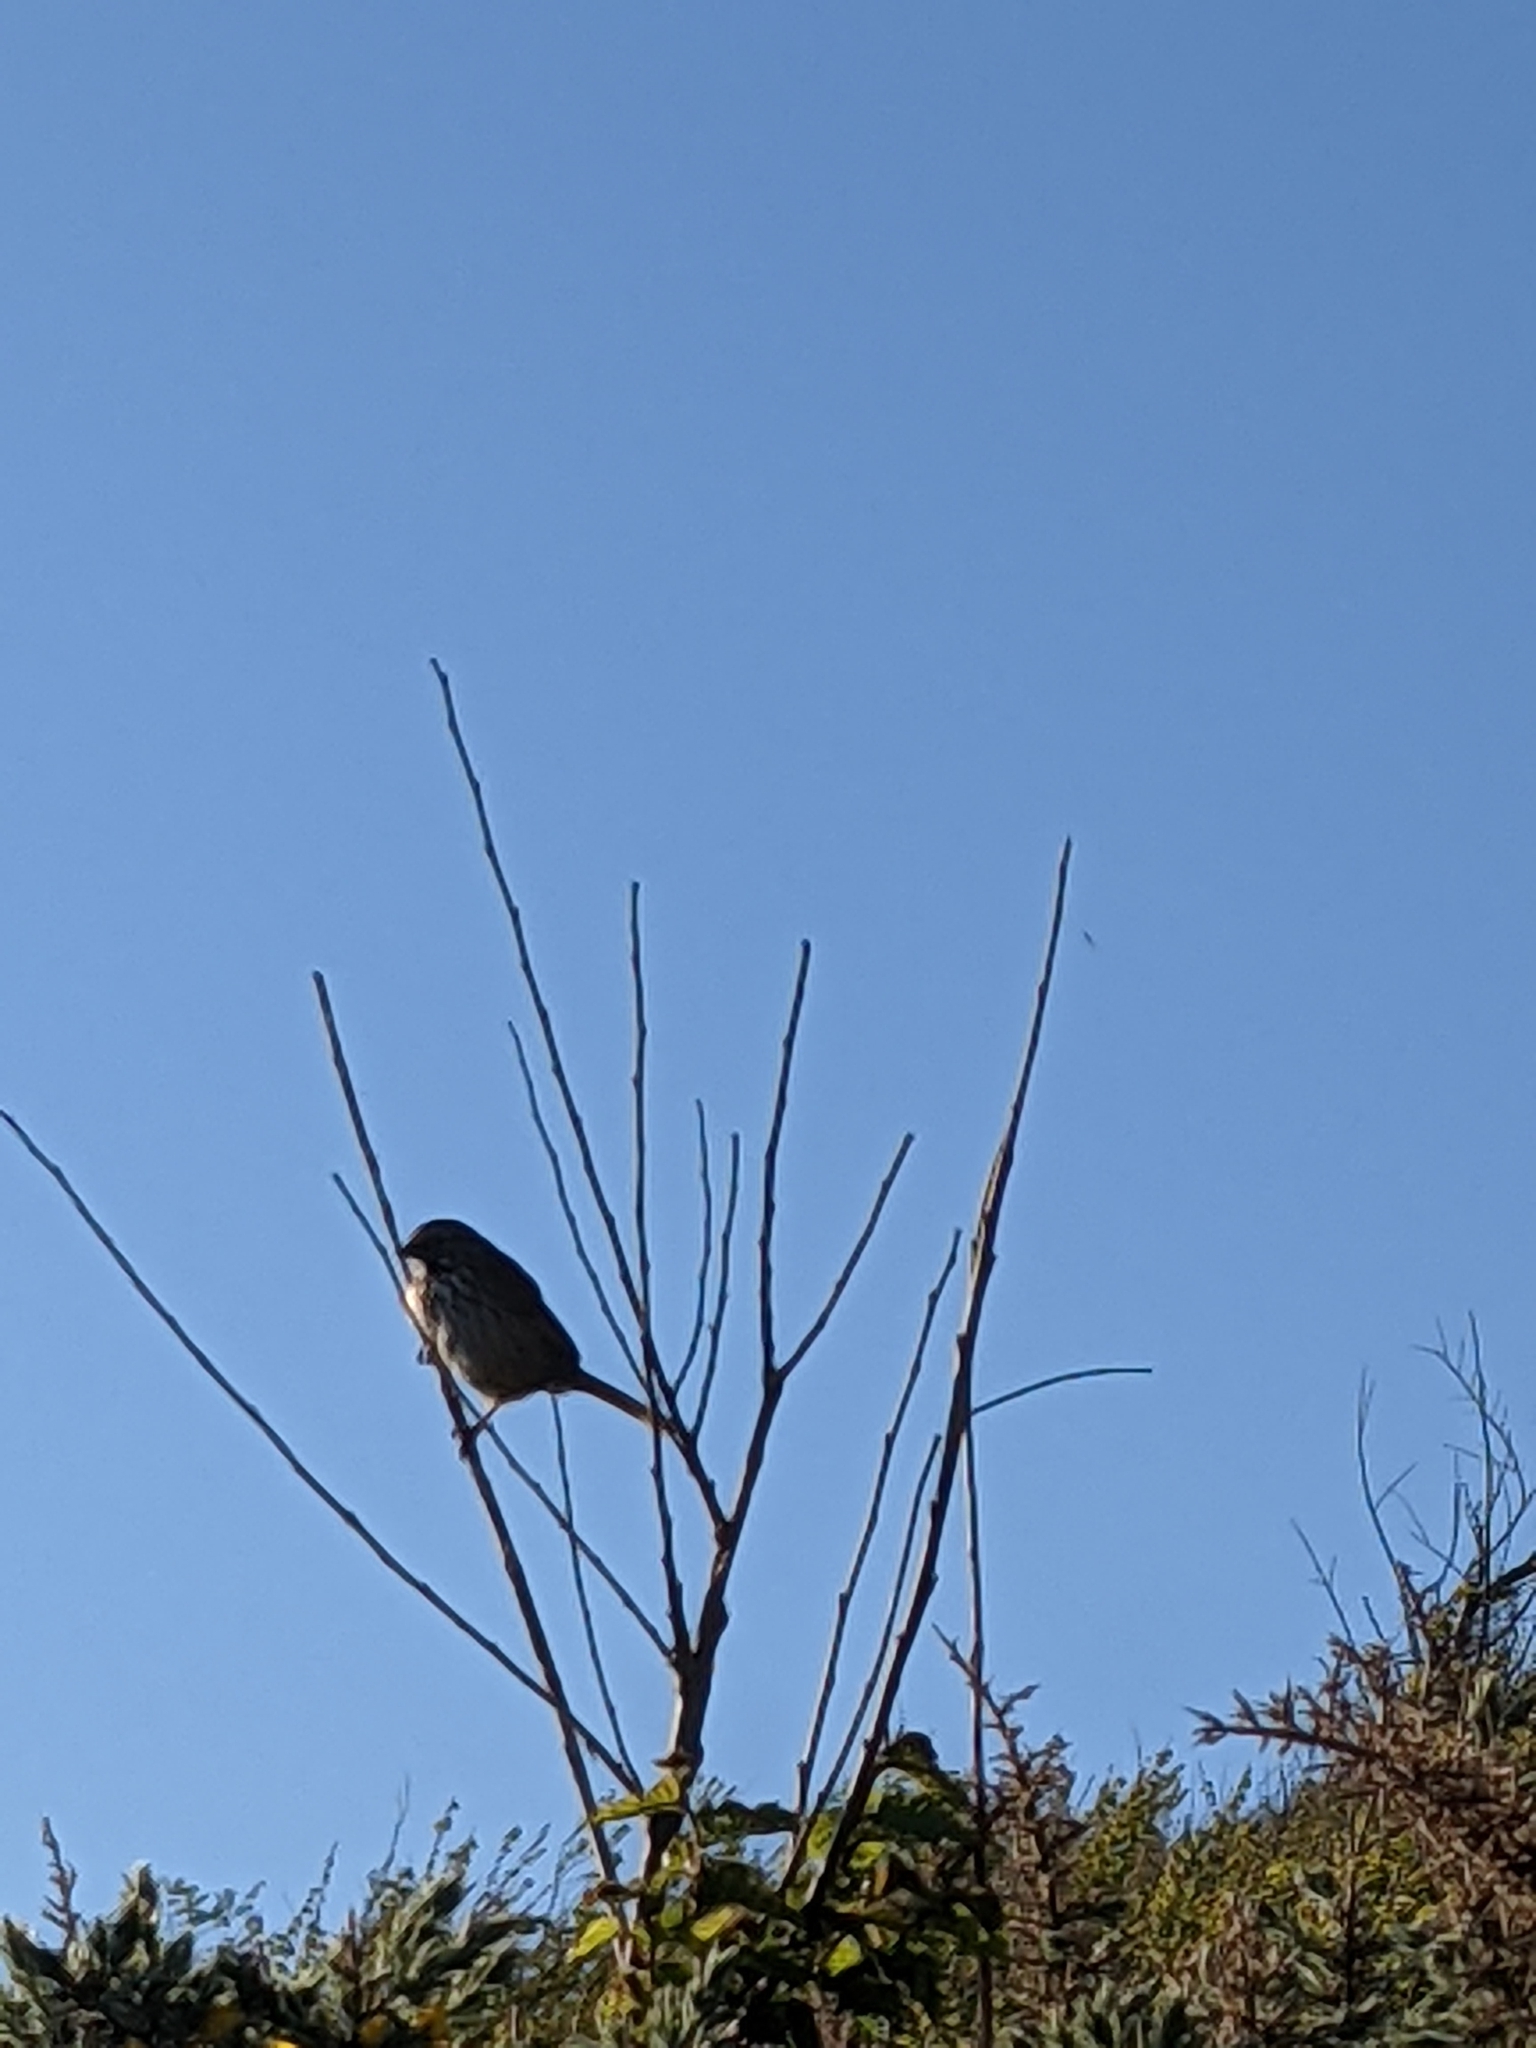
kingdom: Animalia
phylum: Chordata
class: Aves
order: Passeriformes
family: Passerellidae
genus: Melospiza
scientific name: Melospiza melodia
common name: Song sparrow
